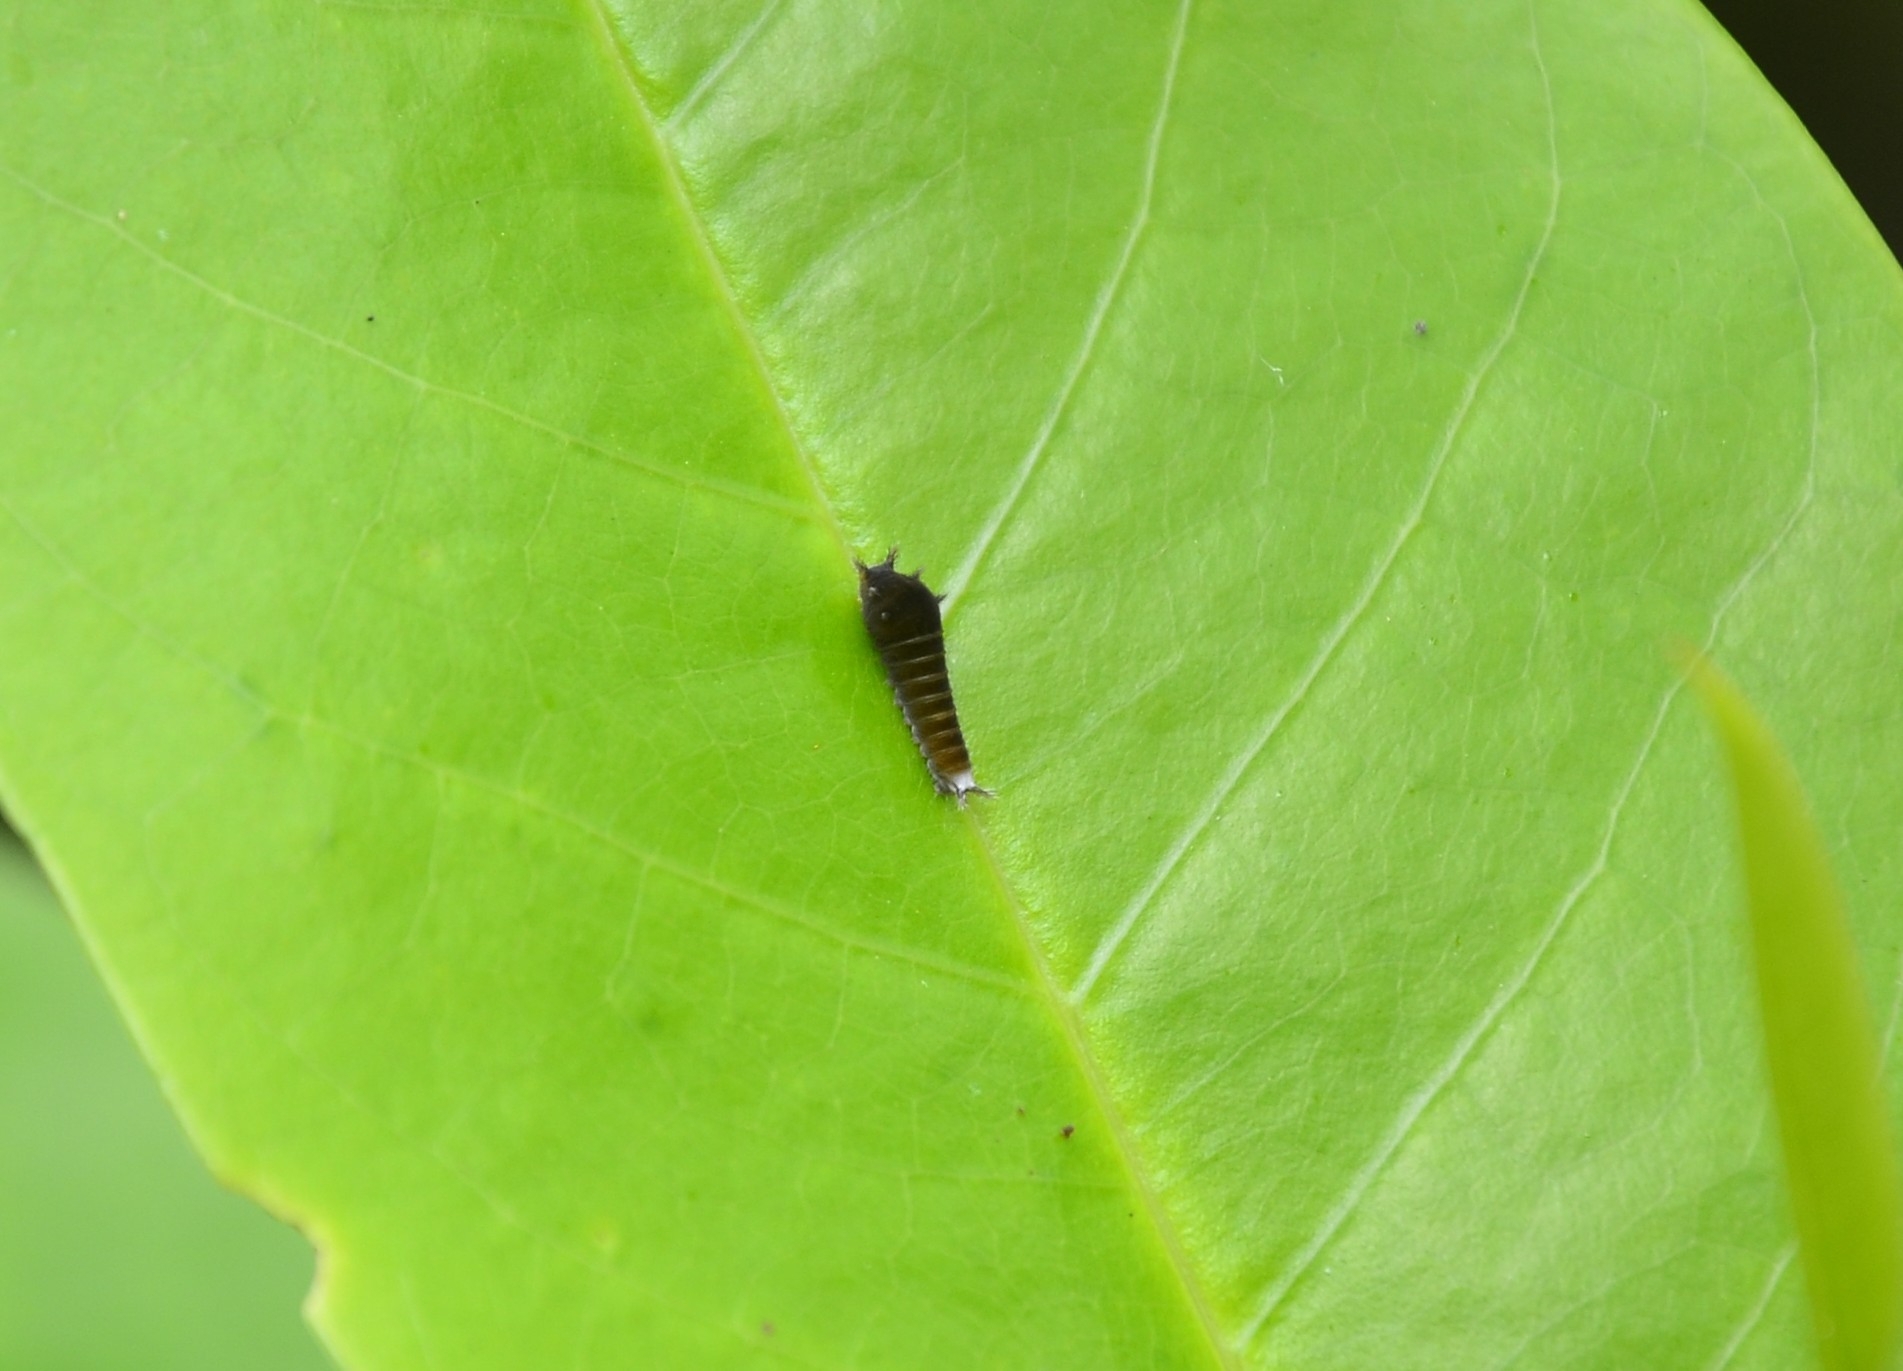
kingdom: Animalia
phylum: Arthropoda
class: Insecta
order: Lepidoptera
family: Papilionidae
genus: Graphium
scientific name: Graphium doson
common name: Common jay
